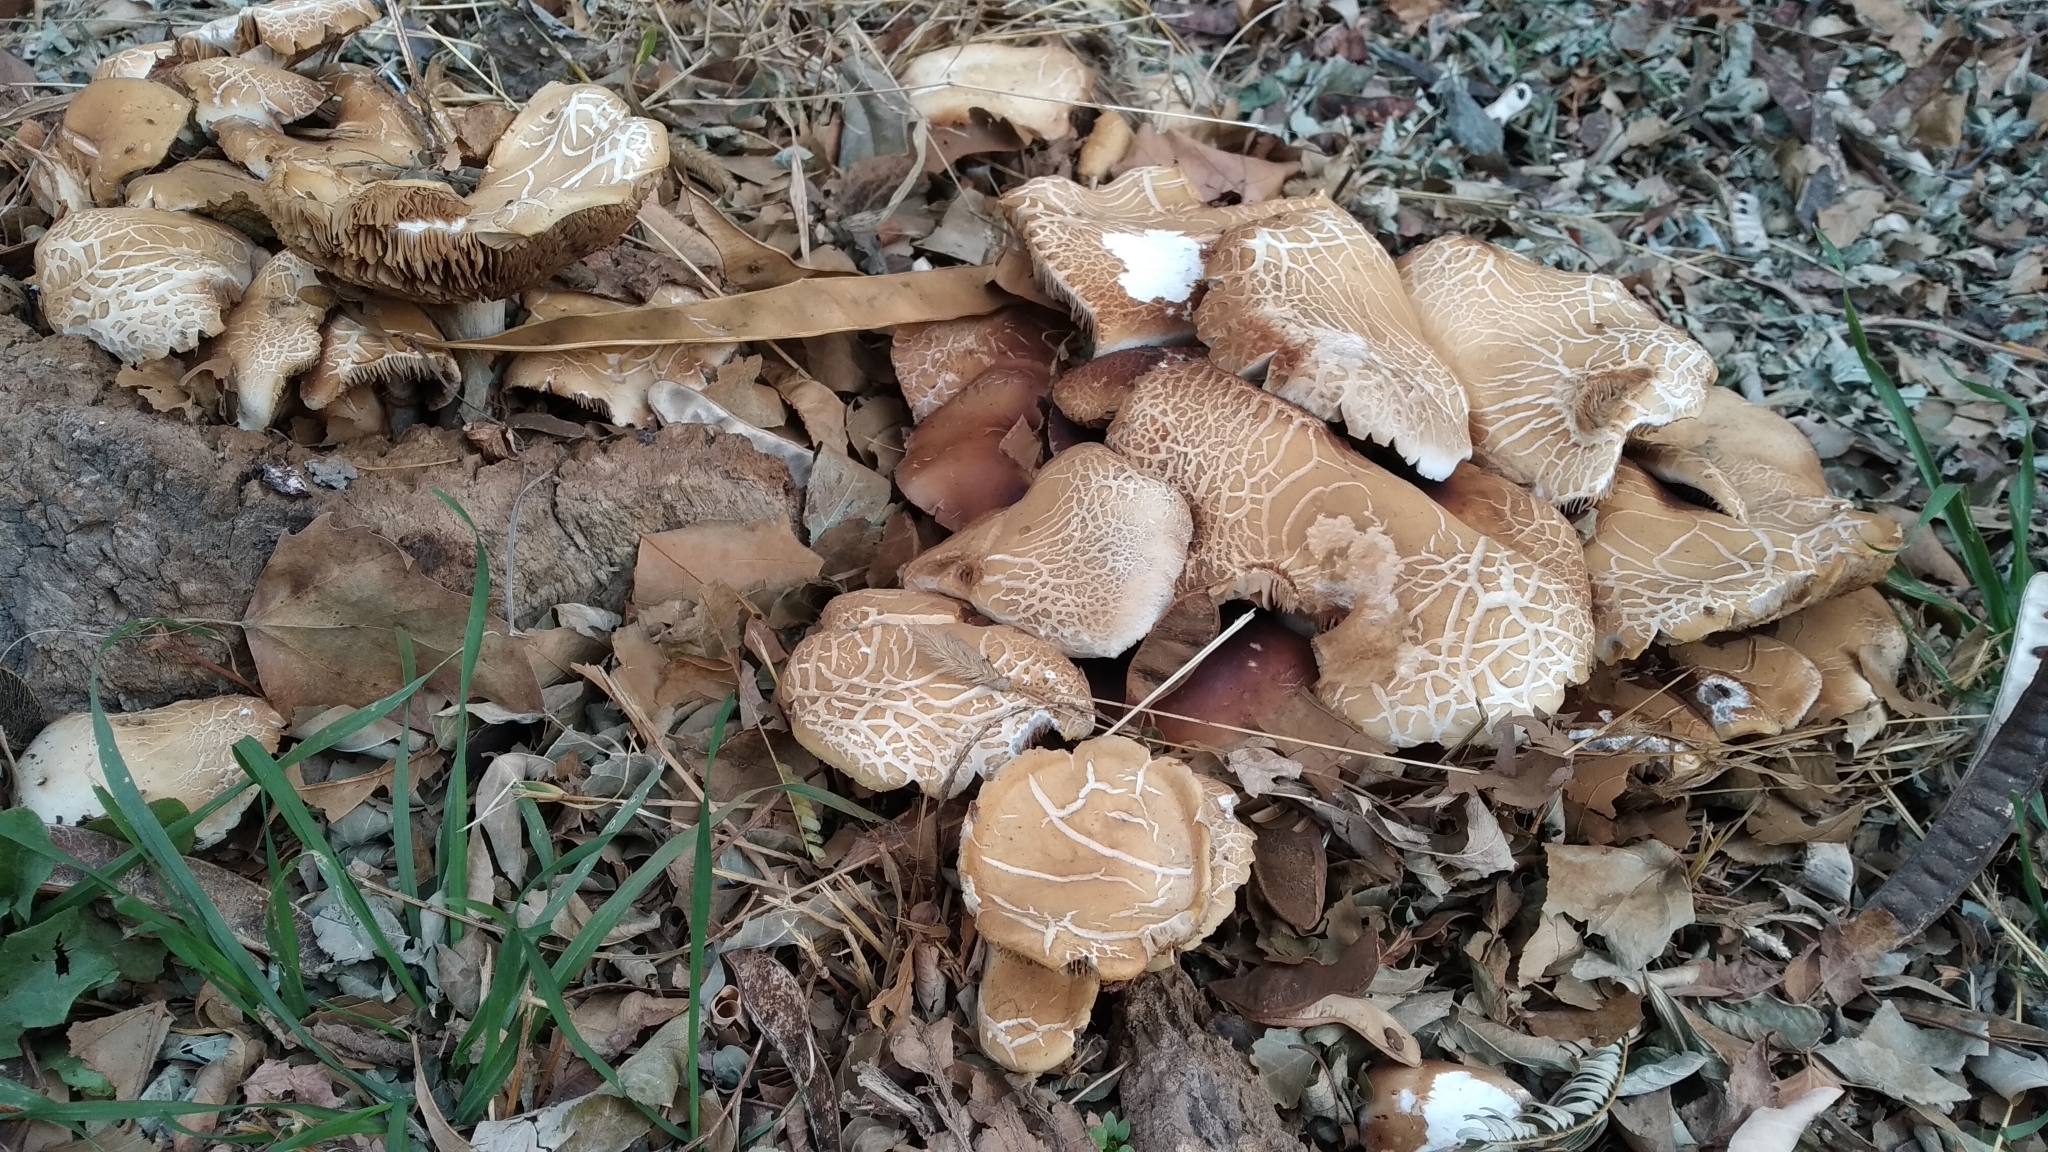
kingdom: Fungi
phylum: Basidiomycota
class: Agaricomycetes
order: Agaricales
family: Tubariaceae
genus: Cyclocybe
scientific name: Cyclocybe cylindracea
